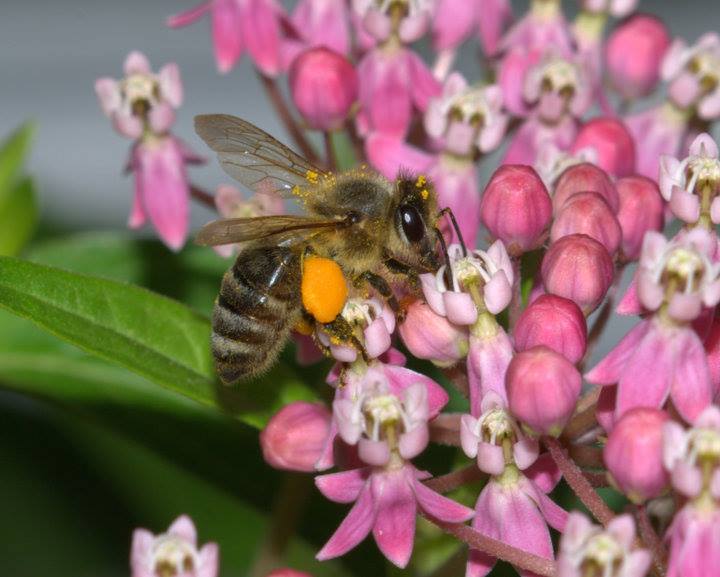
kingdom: Animalia
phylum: Arthropoda
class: Insecta
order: Hymenoptera
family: Apidae
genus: Apis
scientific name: Apis mellifera
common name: Honey bee
